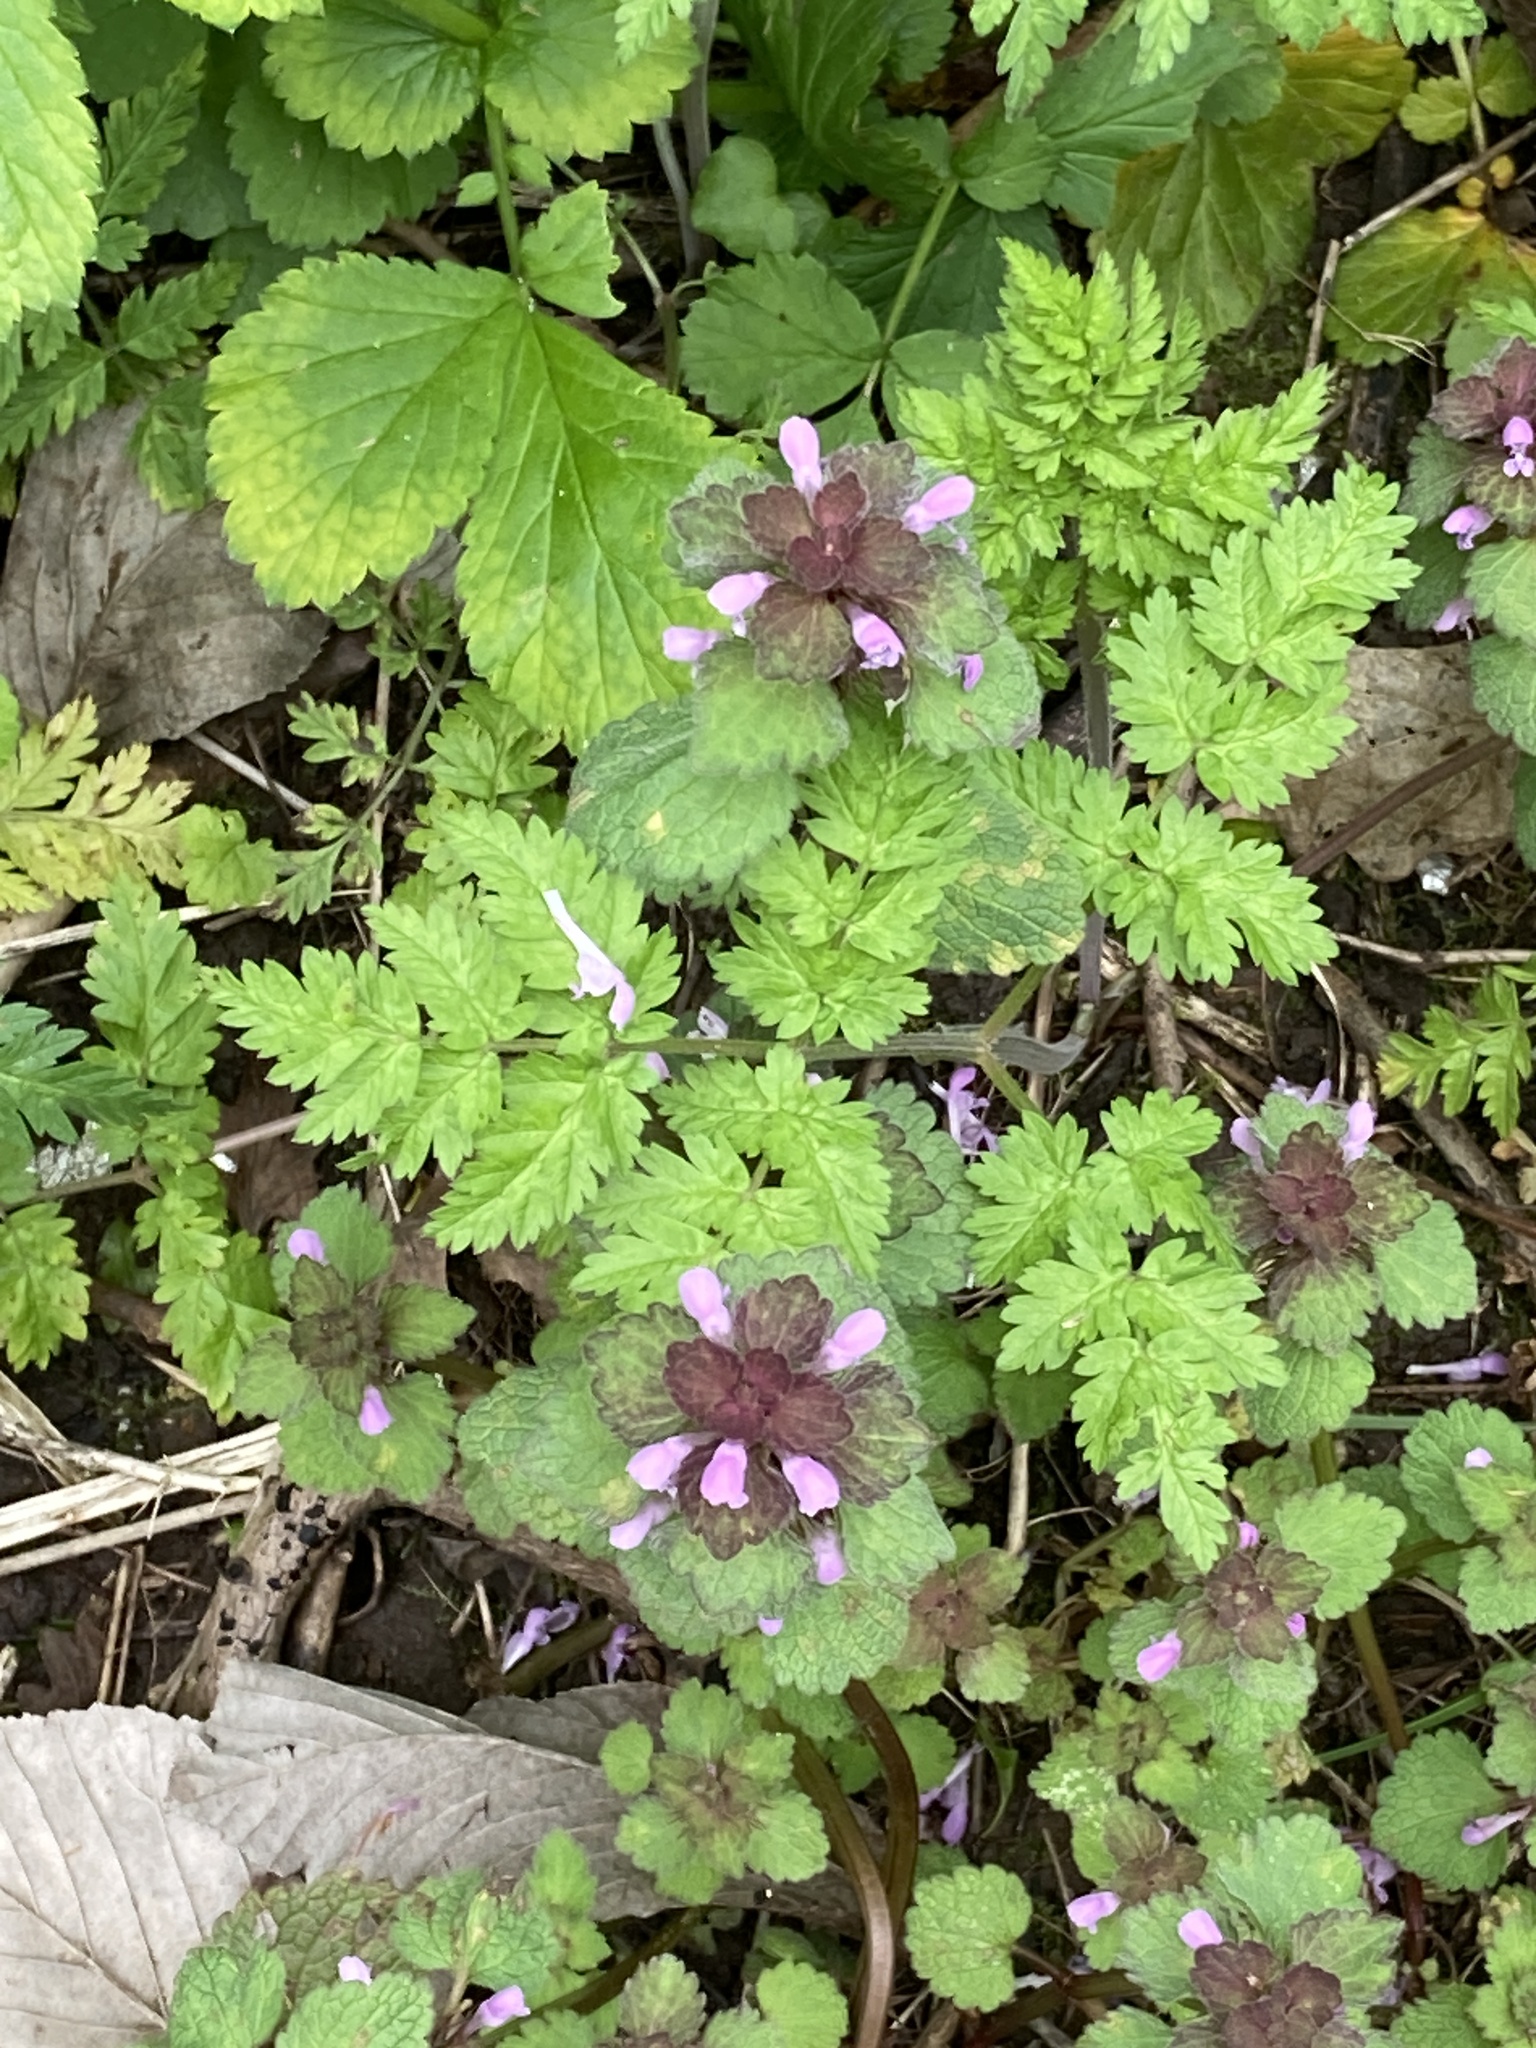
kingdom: Plantae
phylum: Tracheophyta
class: Magnoliopsida
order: Lamiales
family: Lamiaceae
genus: Lamium
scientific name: Lamium purpureum
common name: Red dead-nettle
